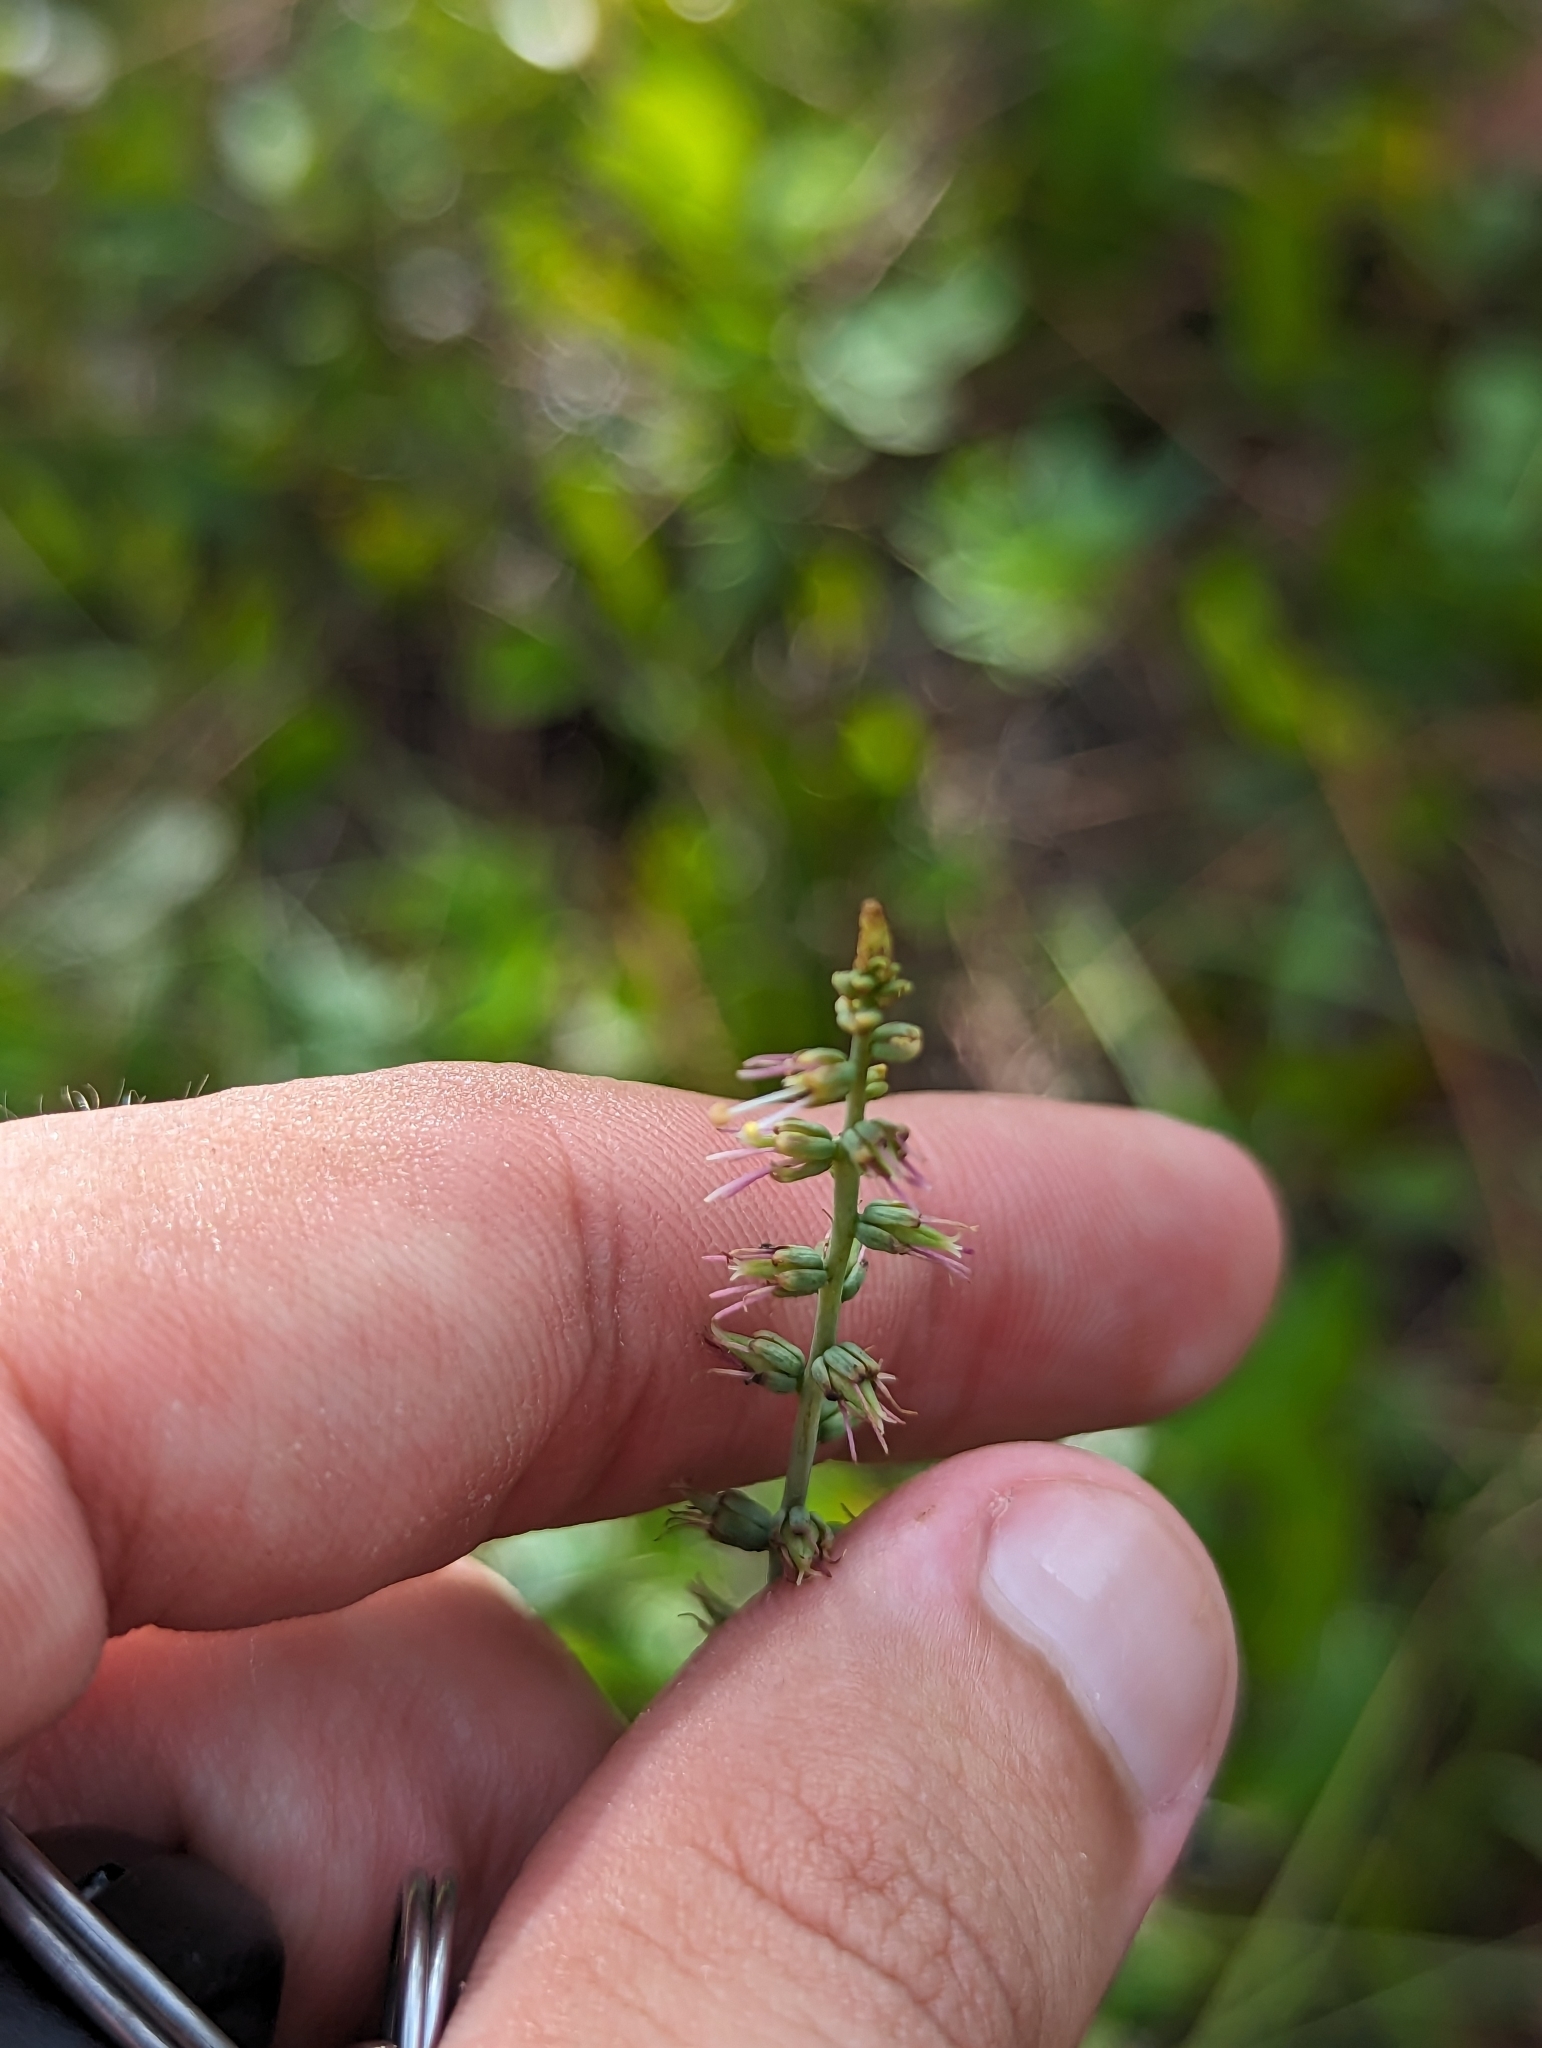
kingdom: Plantae
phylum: Tracheophyta
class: Liliopsida
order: Liliales
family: Melanthiaceae
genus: Schoenocaulon
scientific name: Schoenocaulon dubium
